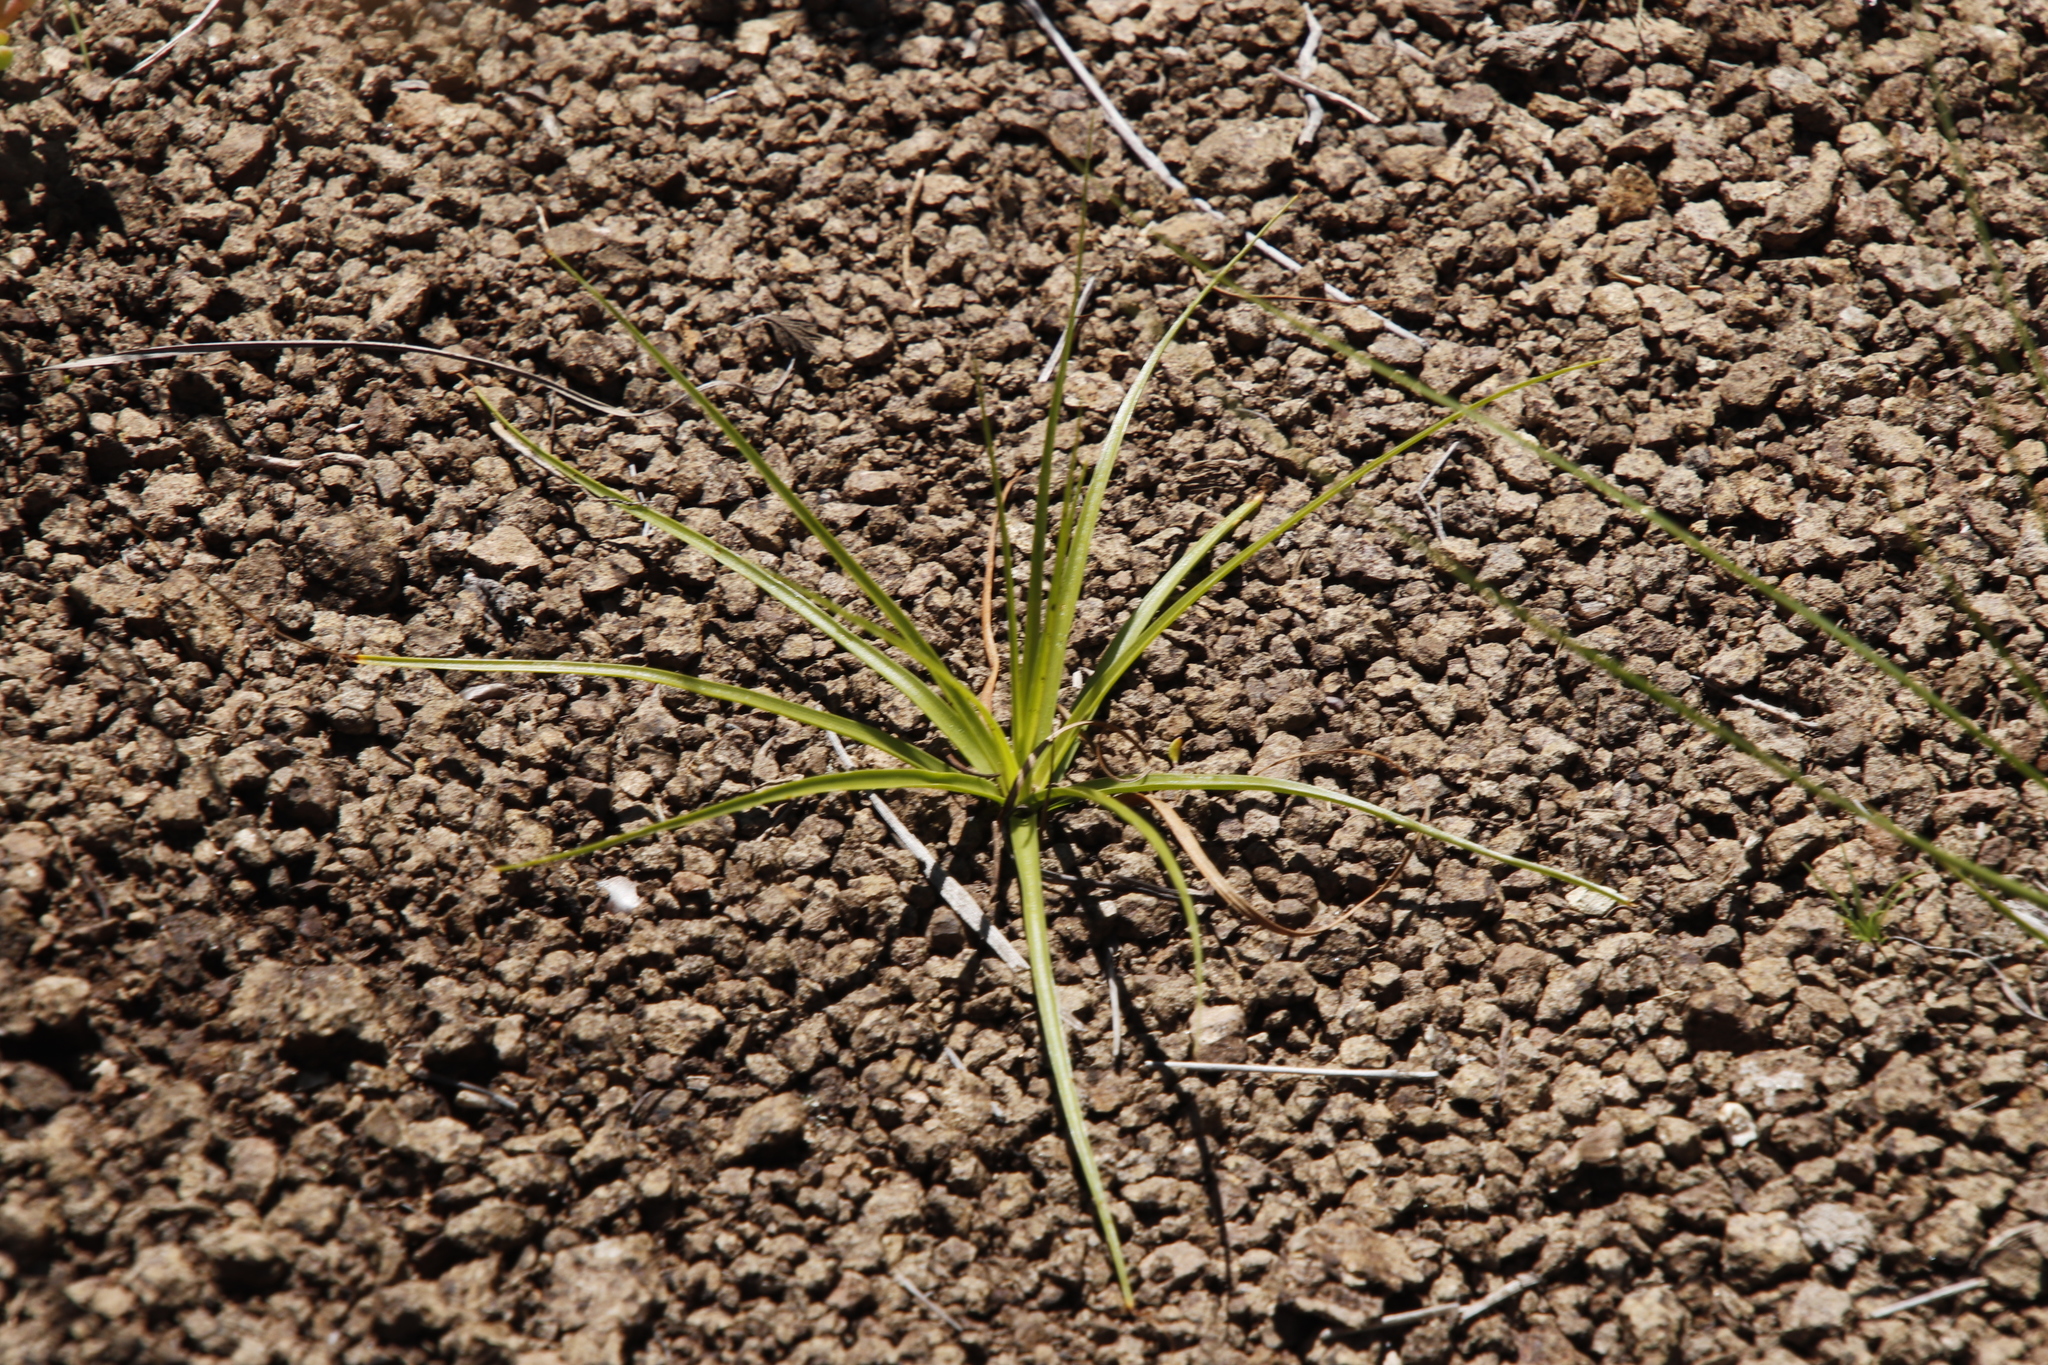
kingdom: Plantae
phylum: Tracheophyta
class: Liliopsida
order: Poales
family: Cyperaceae
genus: Cyperus
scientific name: Cyperus usitatus
